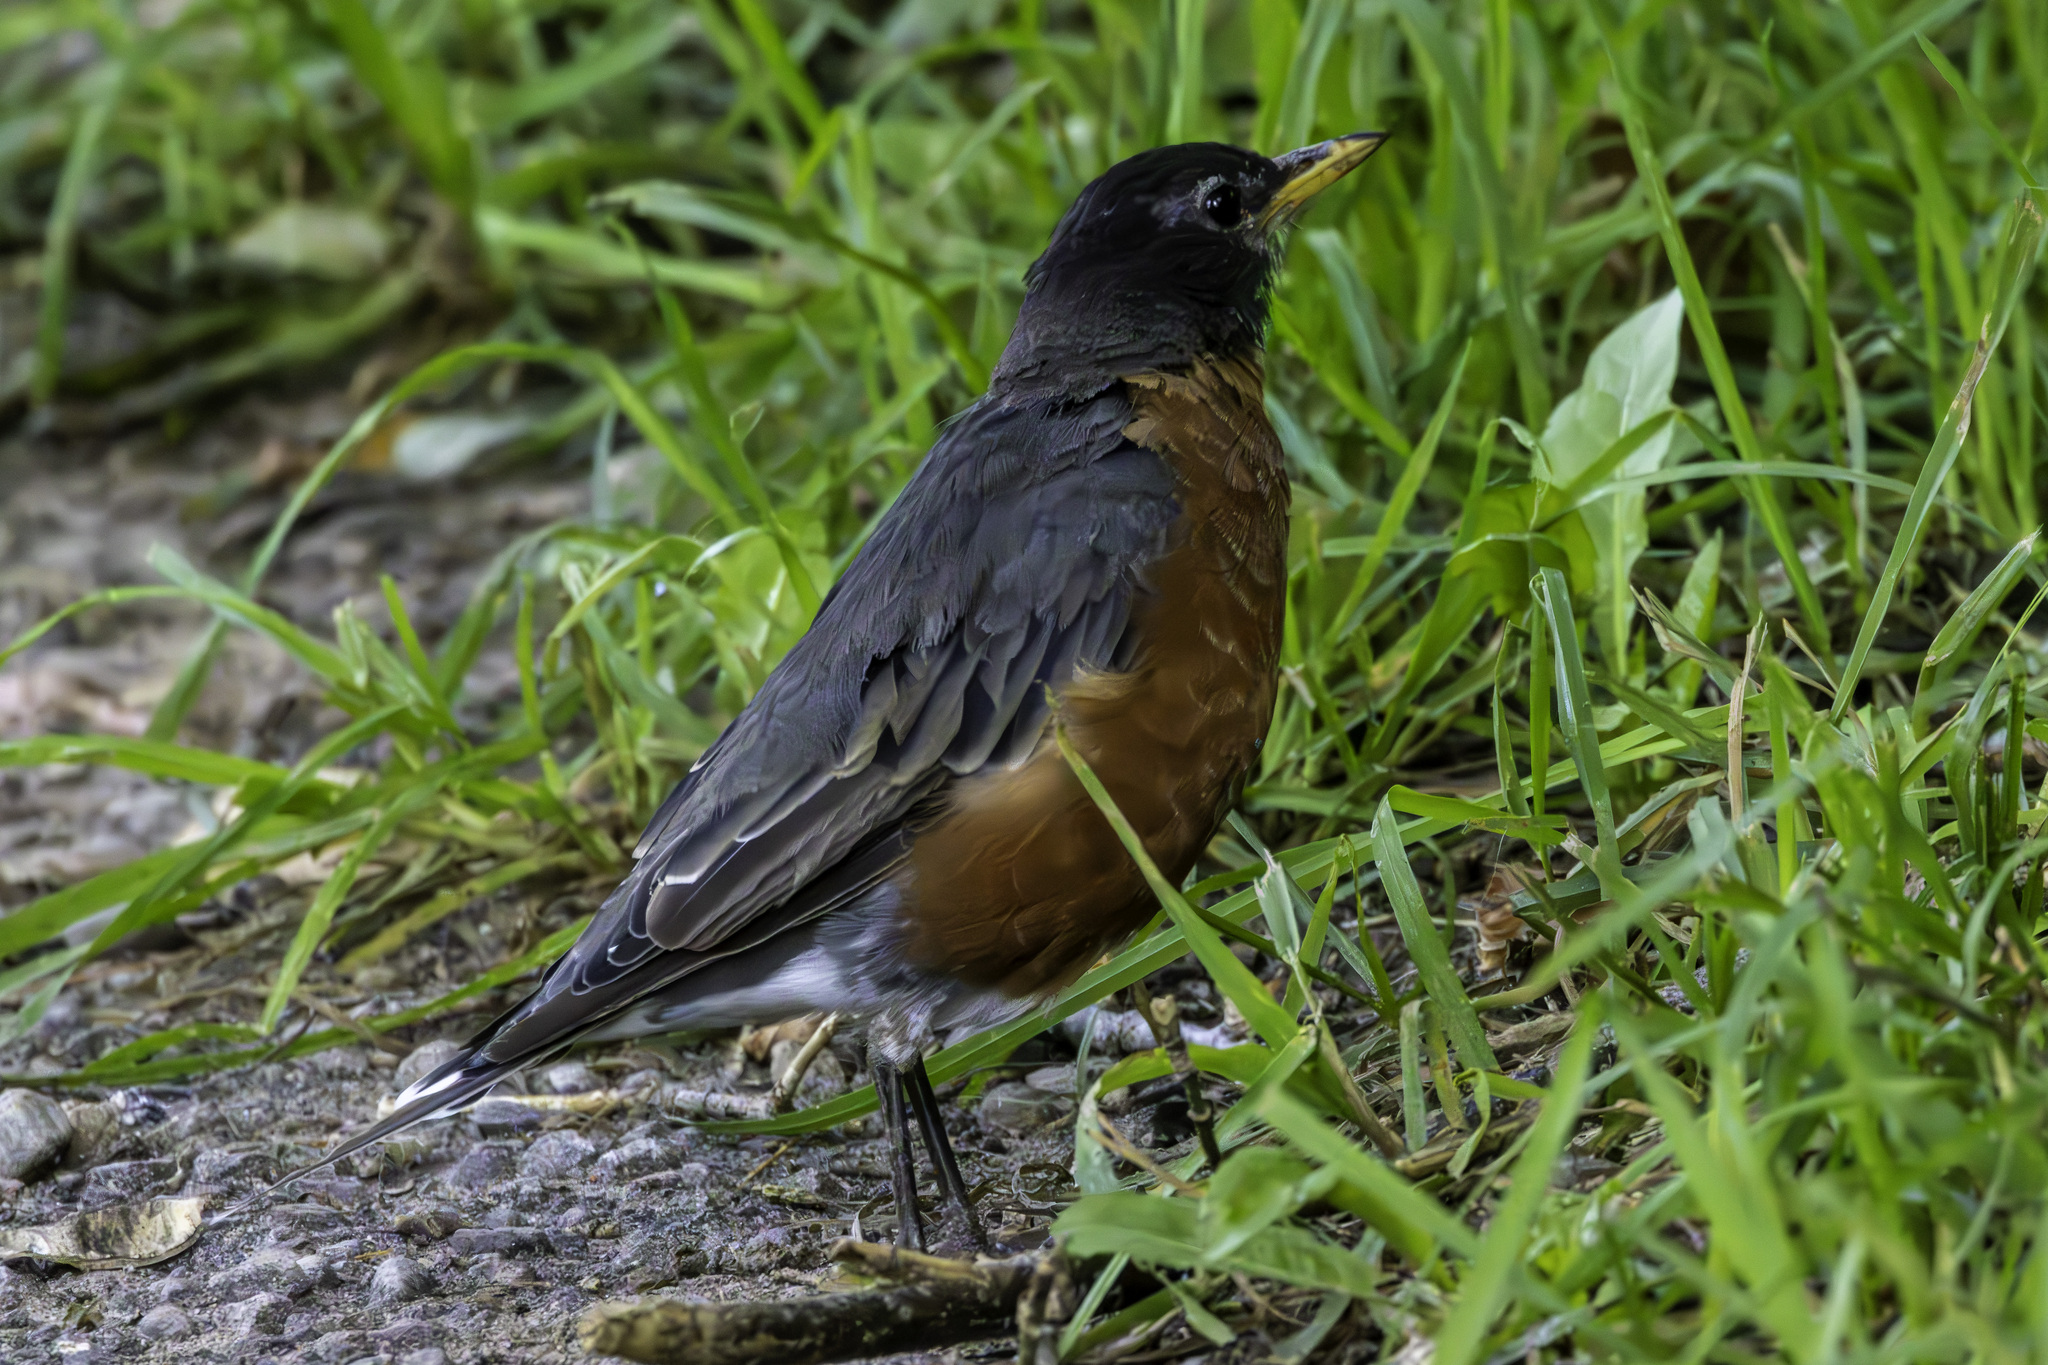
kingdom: Animalia
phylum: Chordata
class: Aves
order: Passeriformes
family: Turdidae
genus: Turdus
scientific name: Turdus migratorius
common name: American robin
